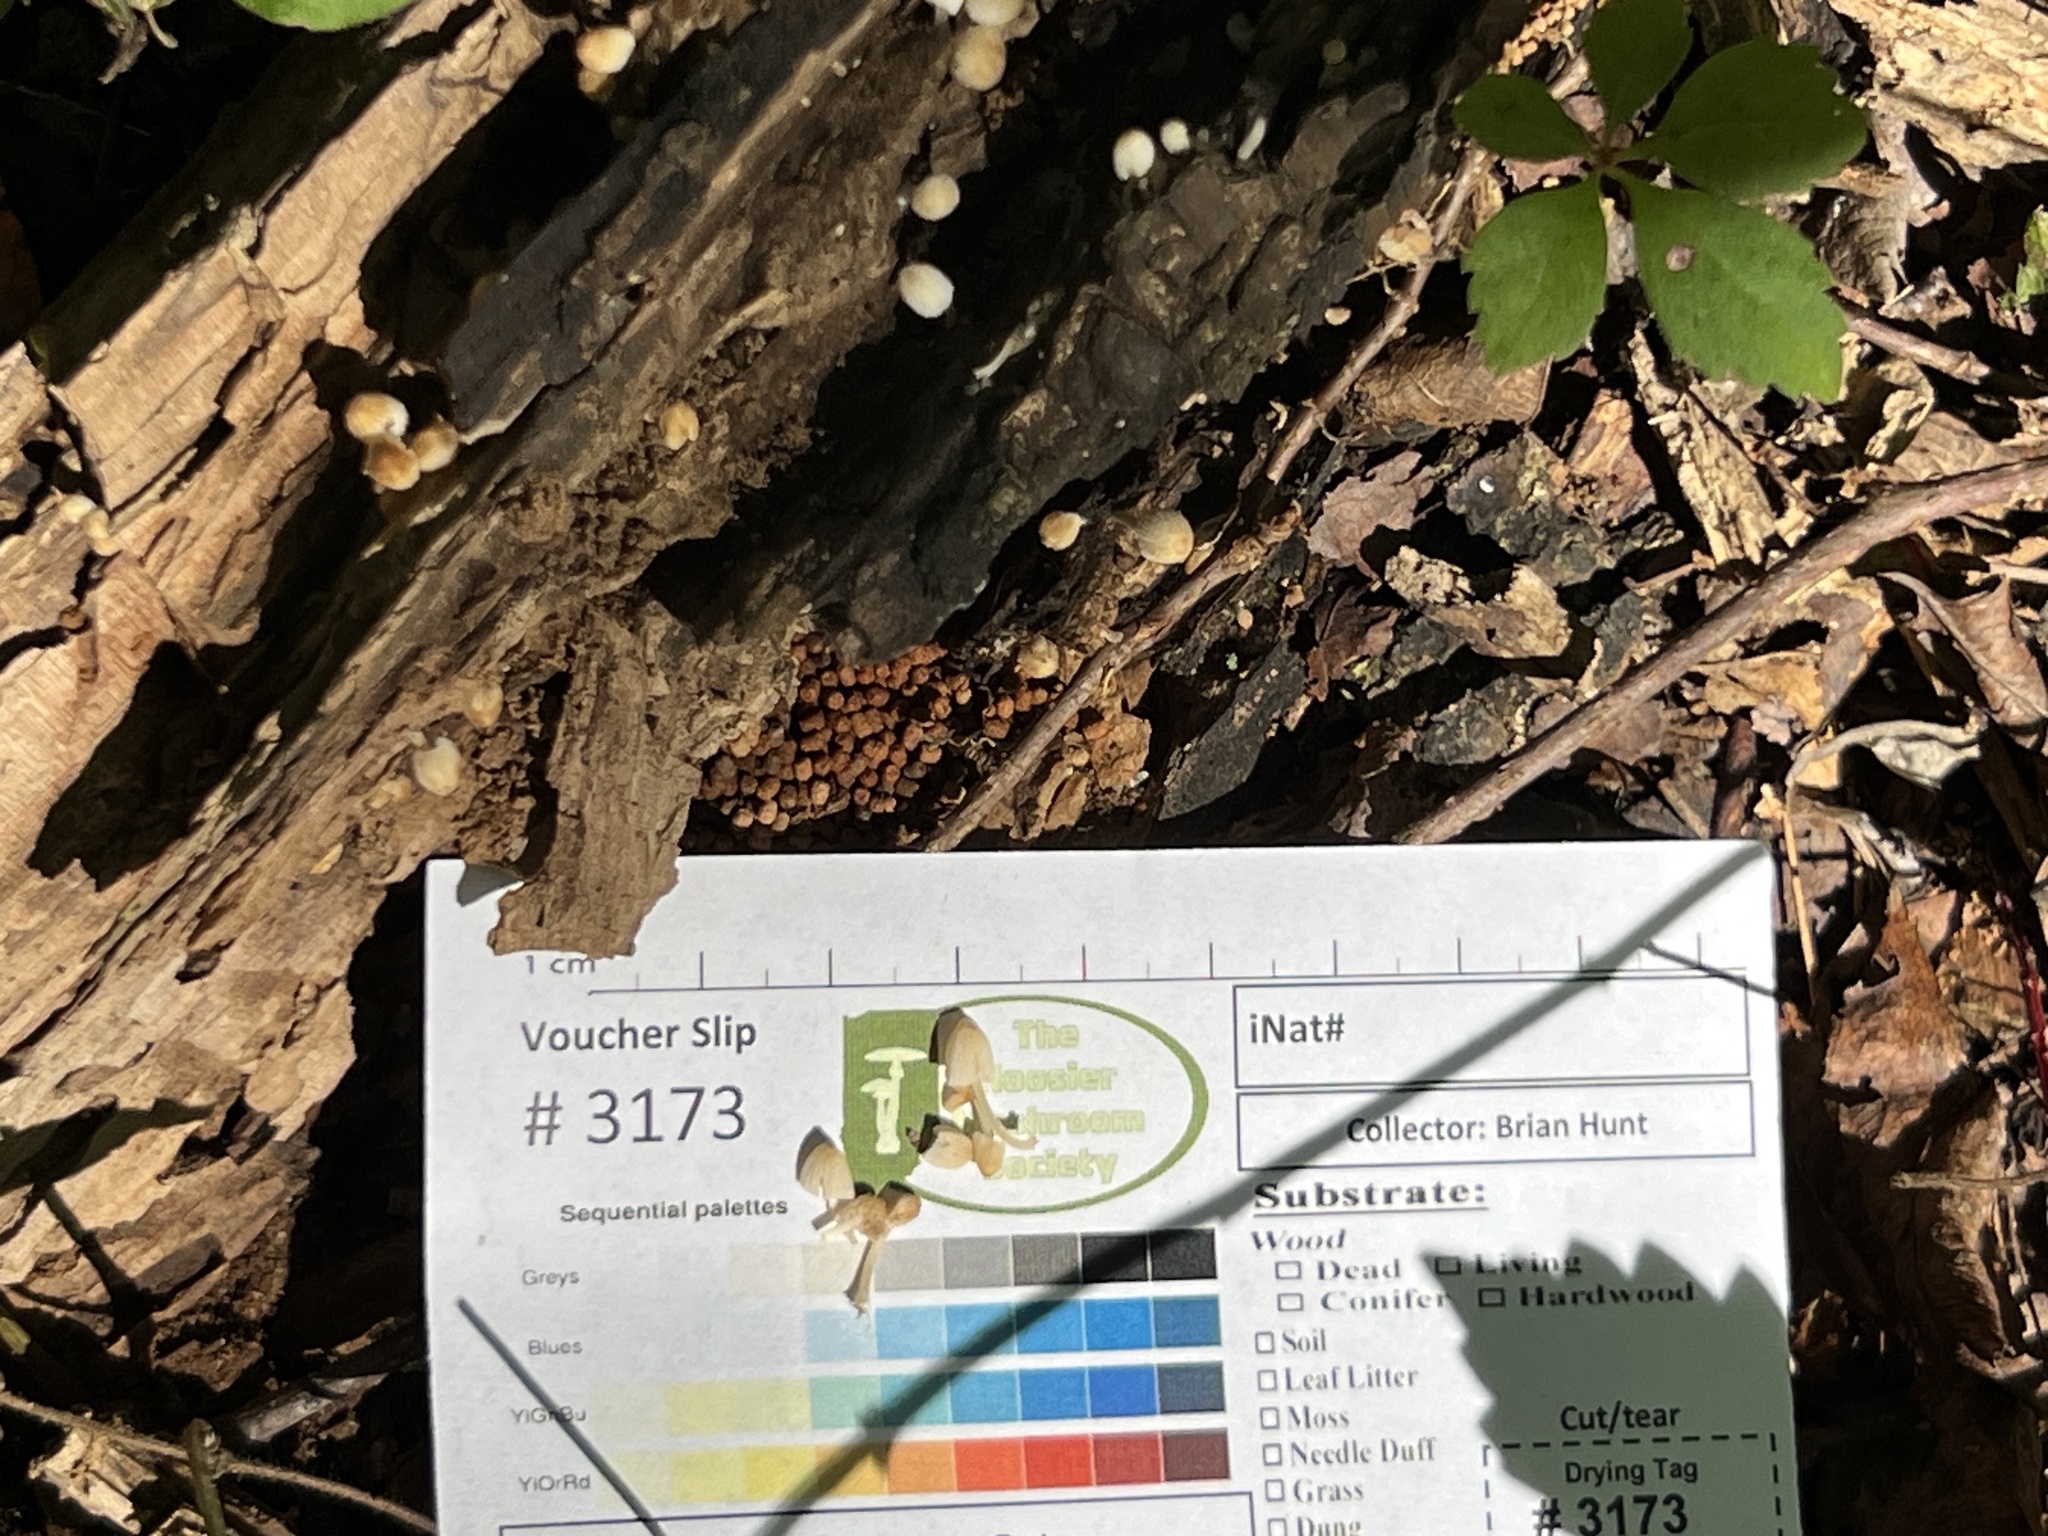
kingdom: Fungi
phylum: Basidiomycota
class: Agaricomycetes
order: Agaricales
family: Psathyrellaceae
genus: Coprinellus
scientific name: Coprinellus disseminatus
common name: Fairies' bonnets
